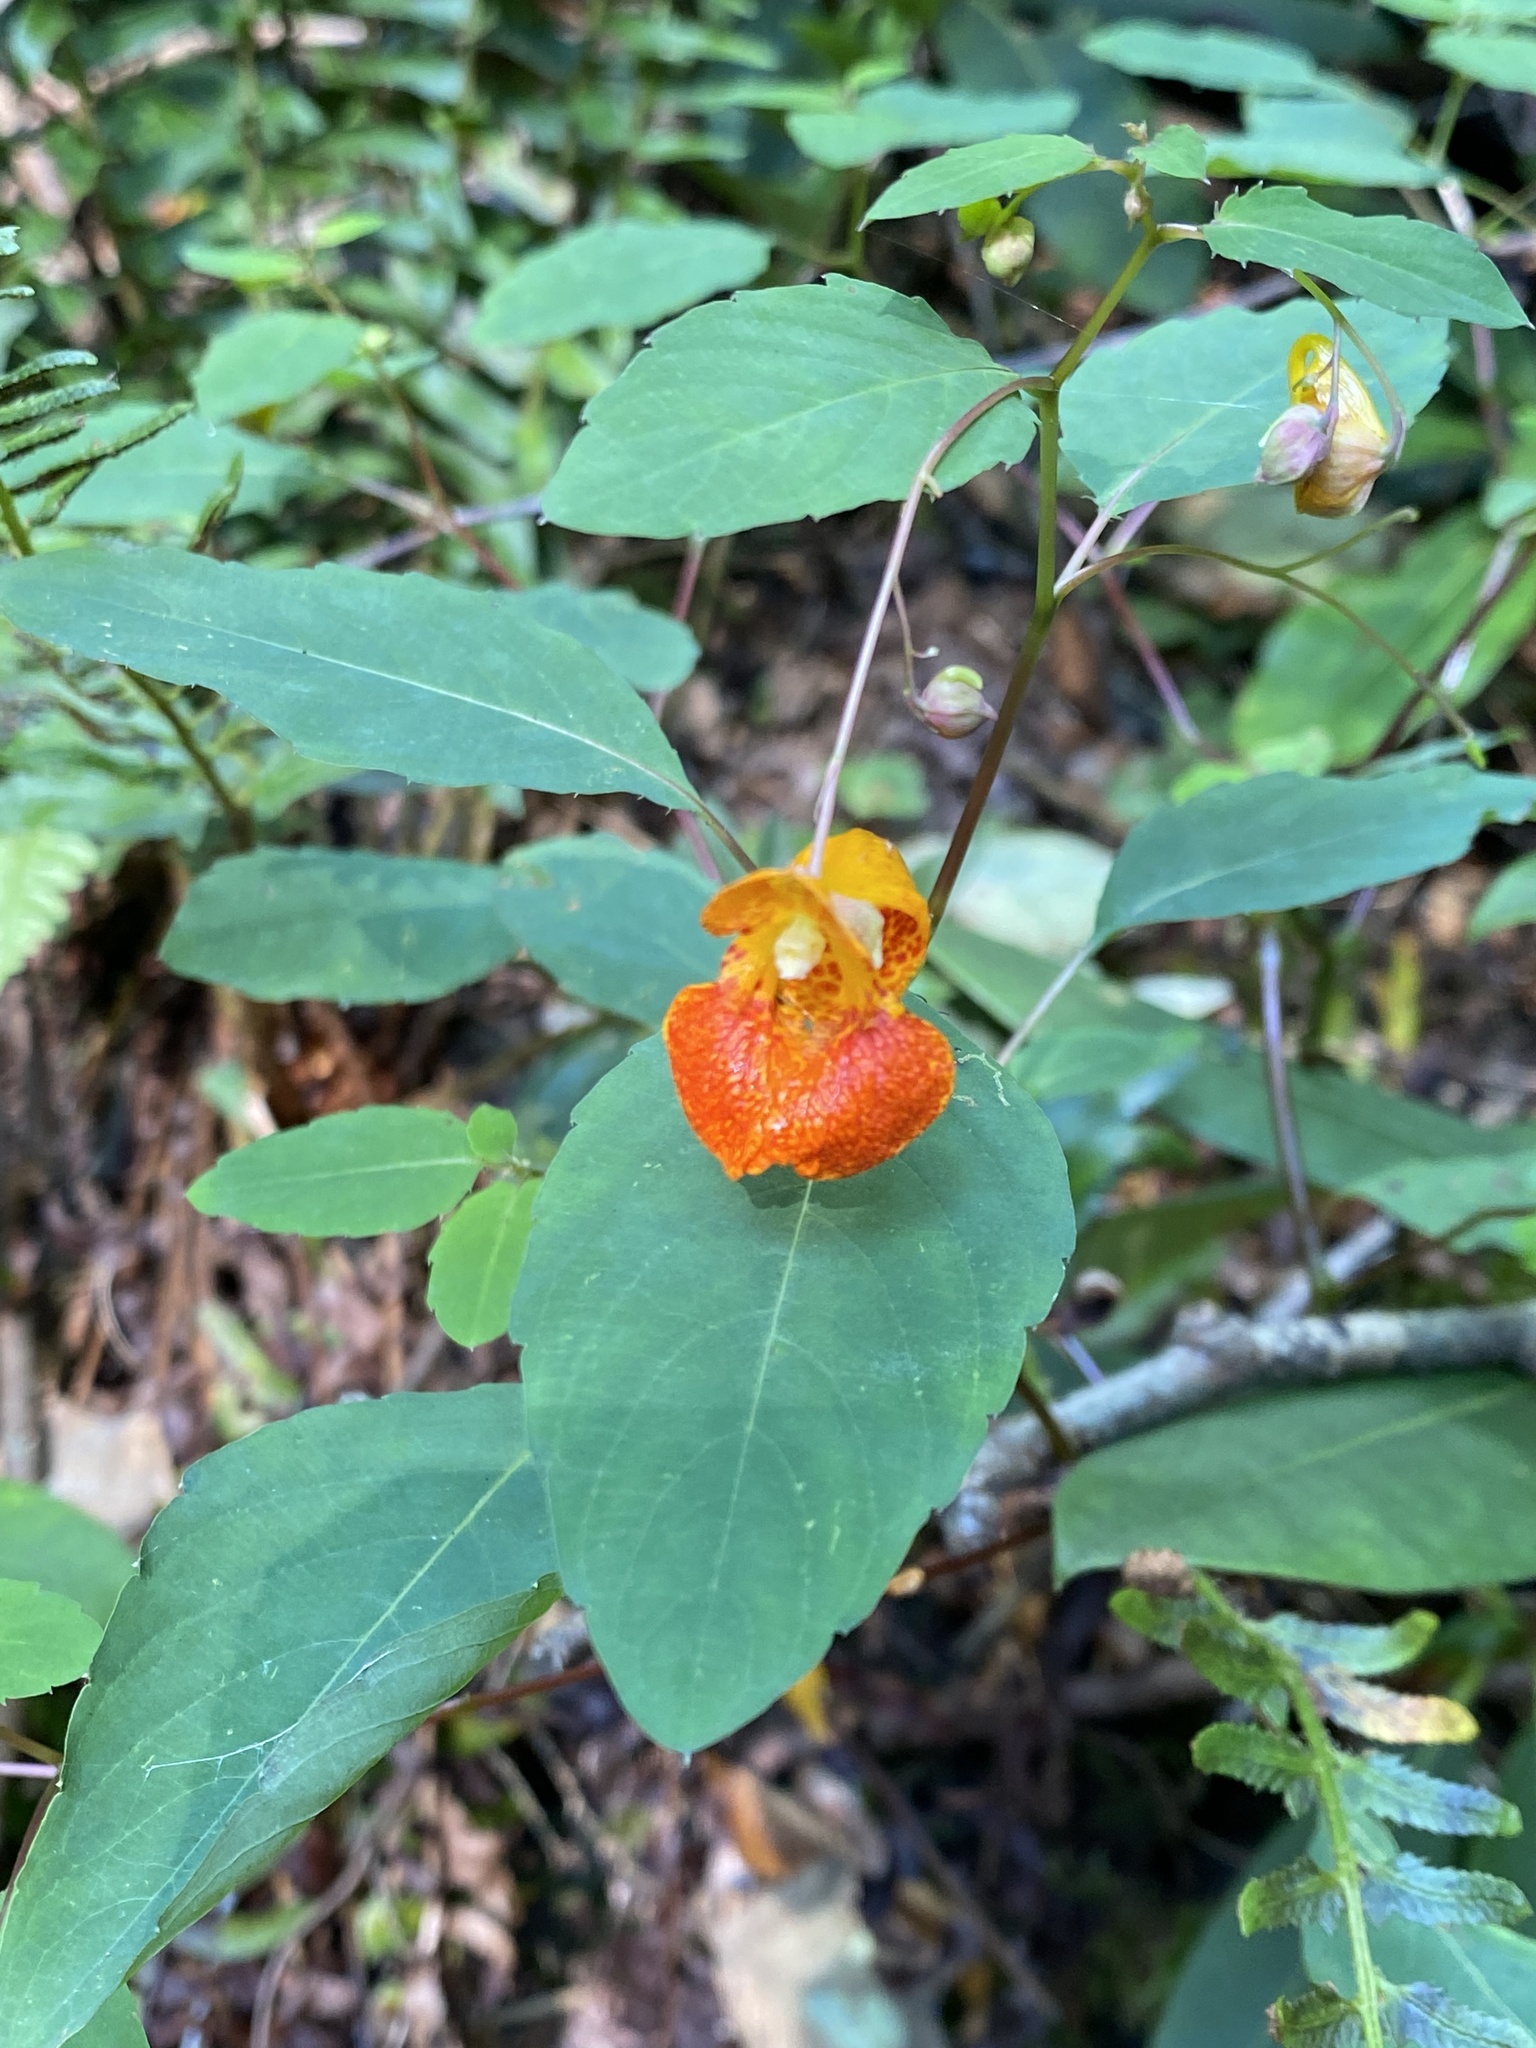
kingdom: Plantae
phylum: Tracheophyta
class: Magnoliopsida
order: Ericales
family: Balsaminaceae
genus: Impatiens
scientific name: Impatiens capensis
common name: Orange balsam
